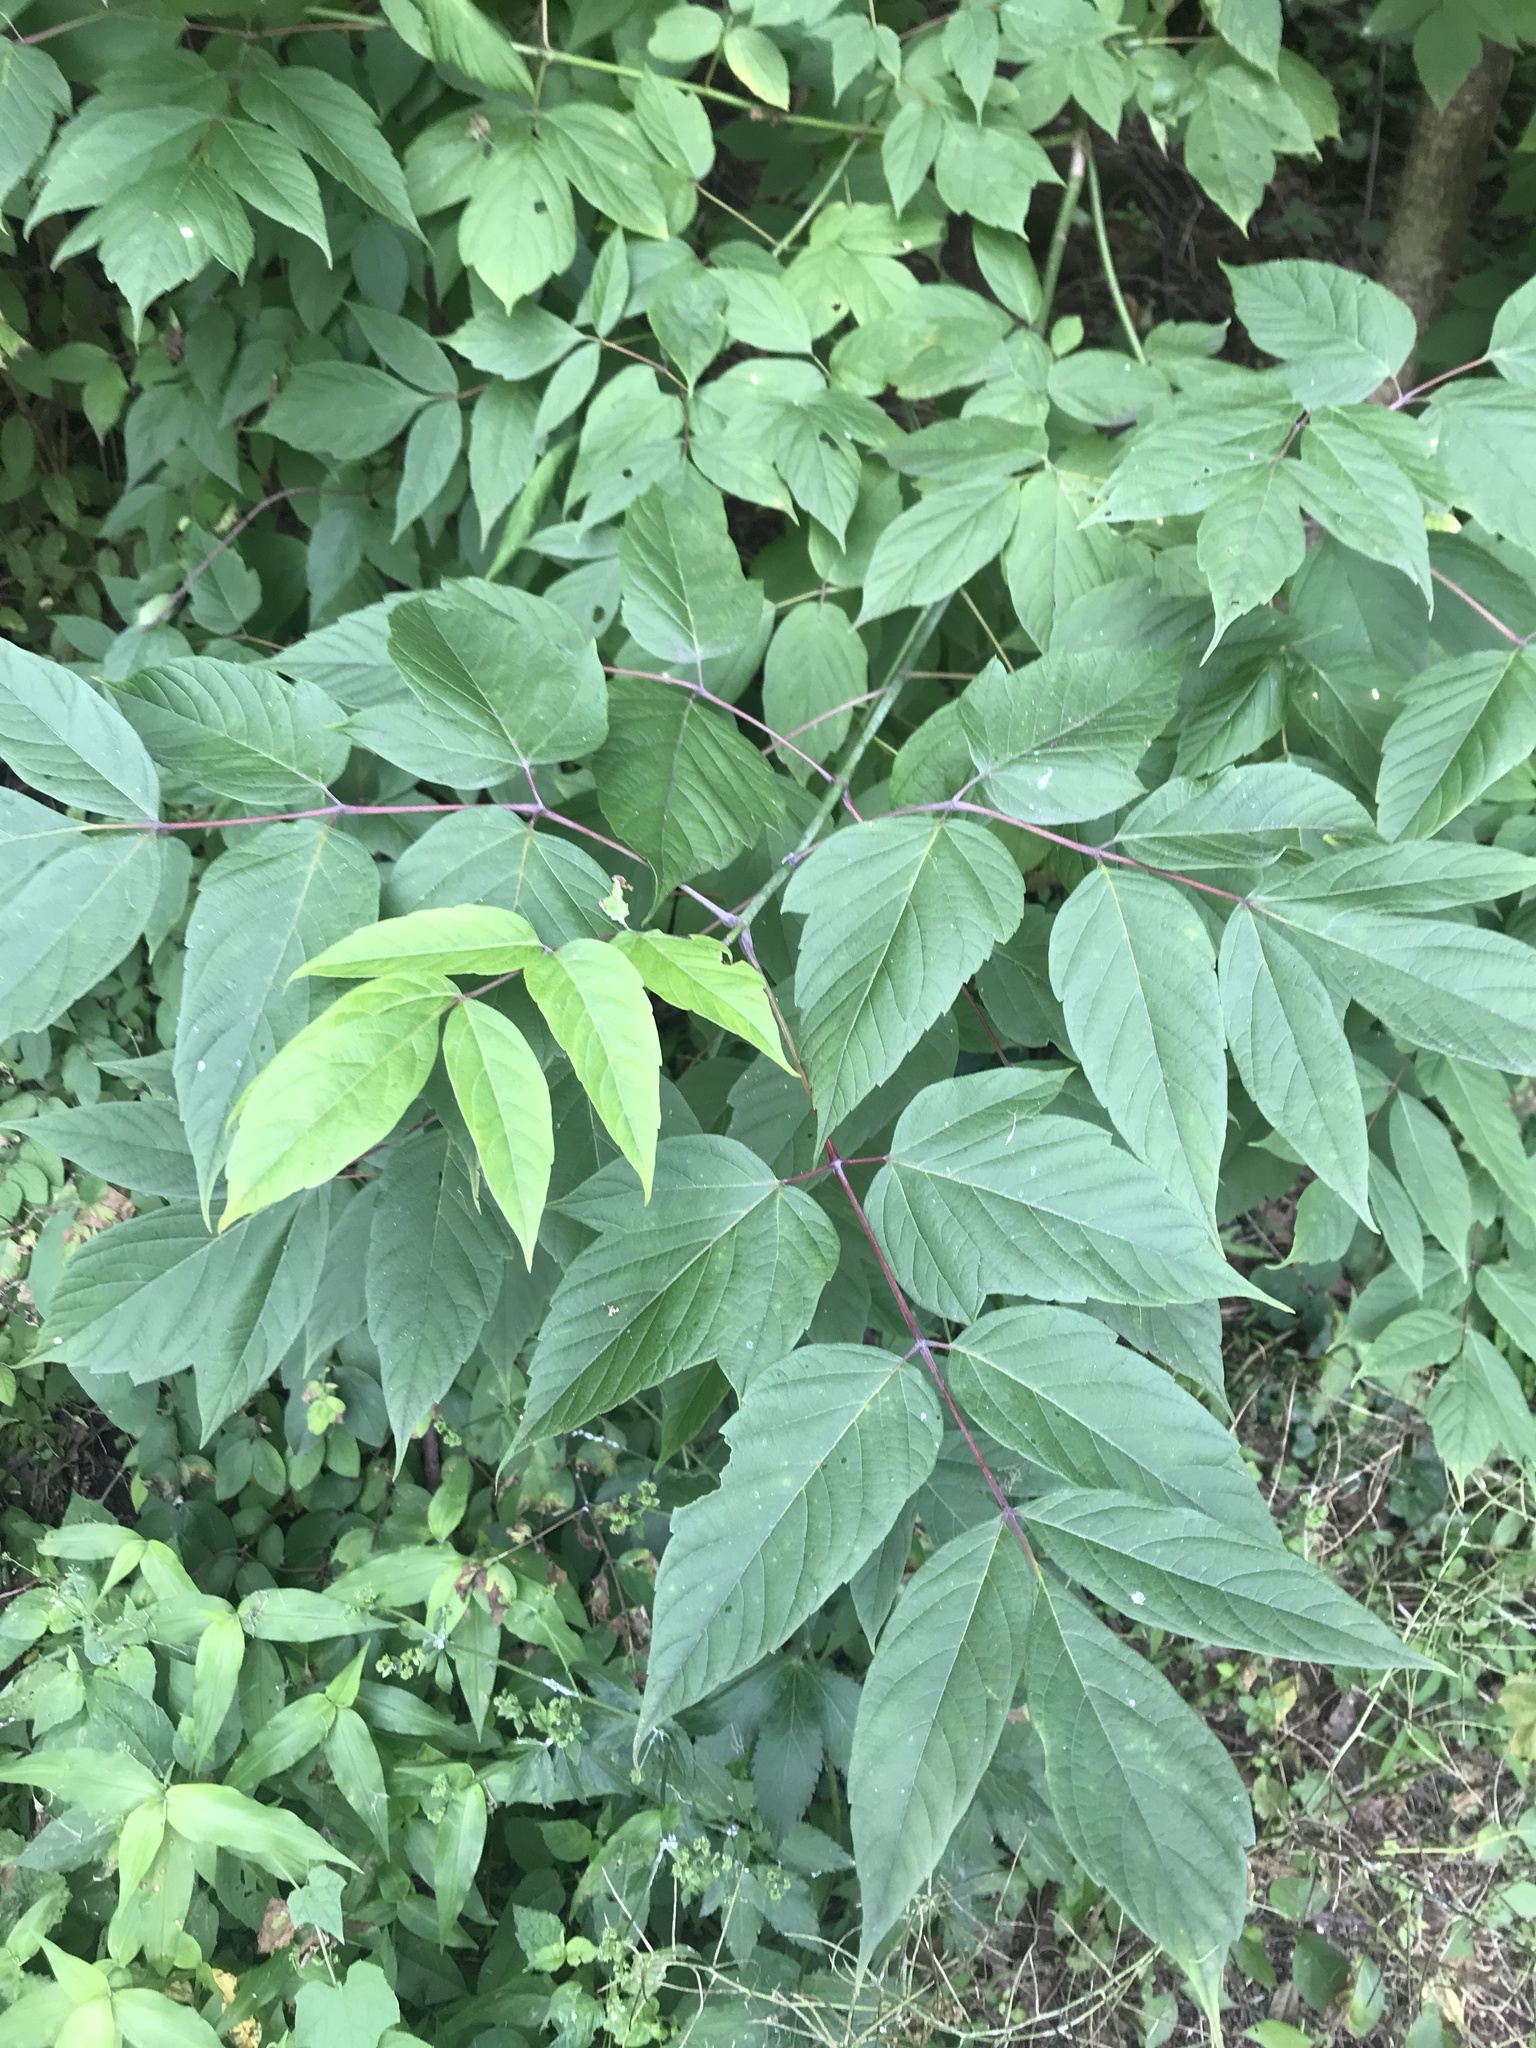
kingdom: Plantae
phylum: Tracheophyta
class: Magnoliopsida
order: Sapindales
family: Sapindaceae
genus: Acer
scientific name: Acer negundo
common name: Ashleaf maple
